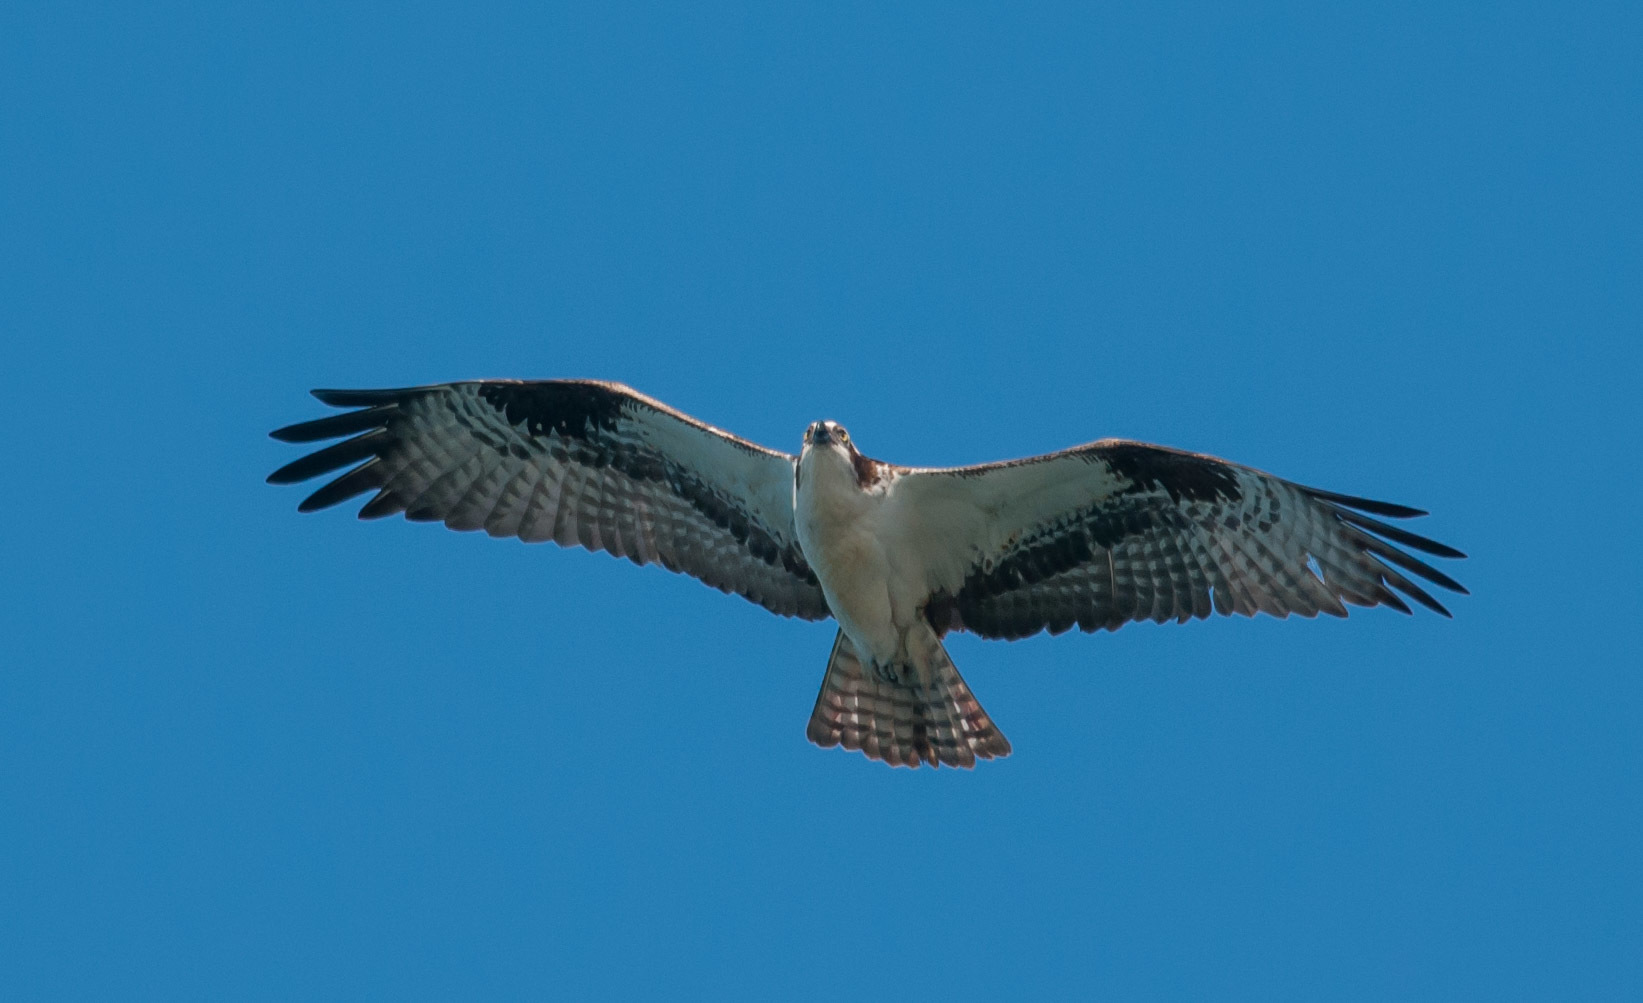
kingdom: Animalia
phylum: Chordata
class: Aves
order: Accipitriformes
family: Pandionidae
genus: Pandion
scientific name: Pandion haliaetus
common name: Osprey
